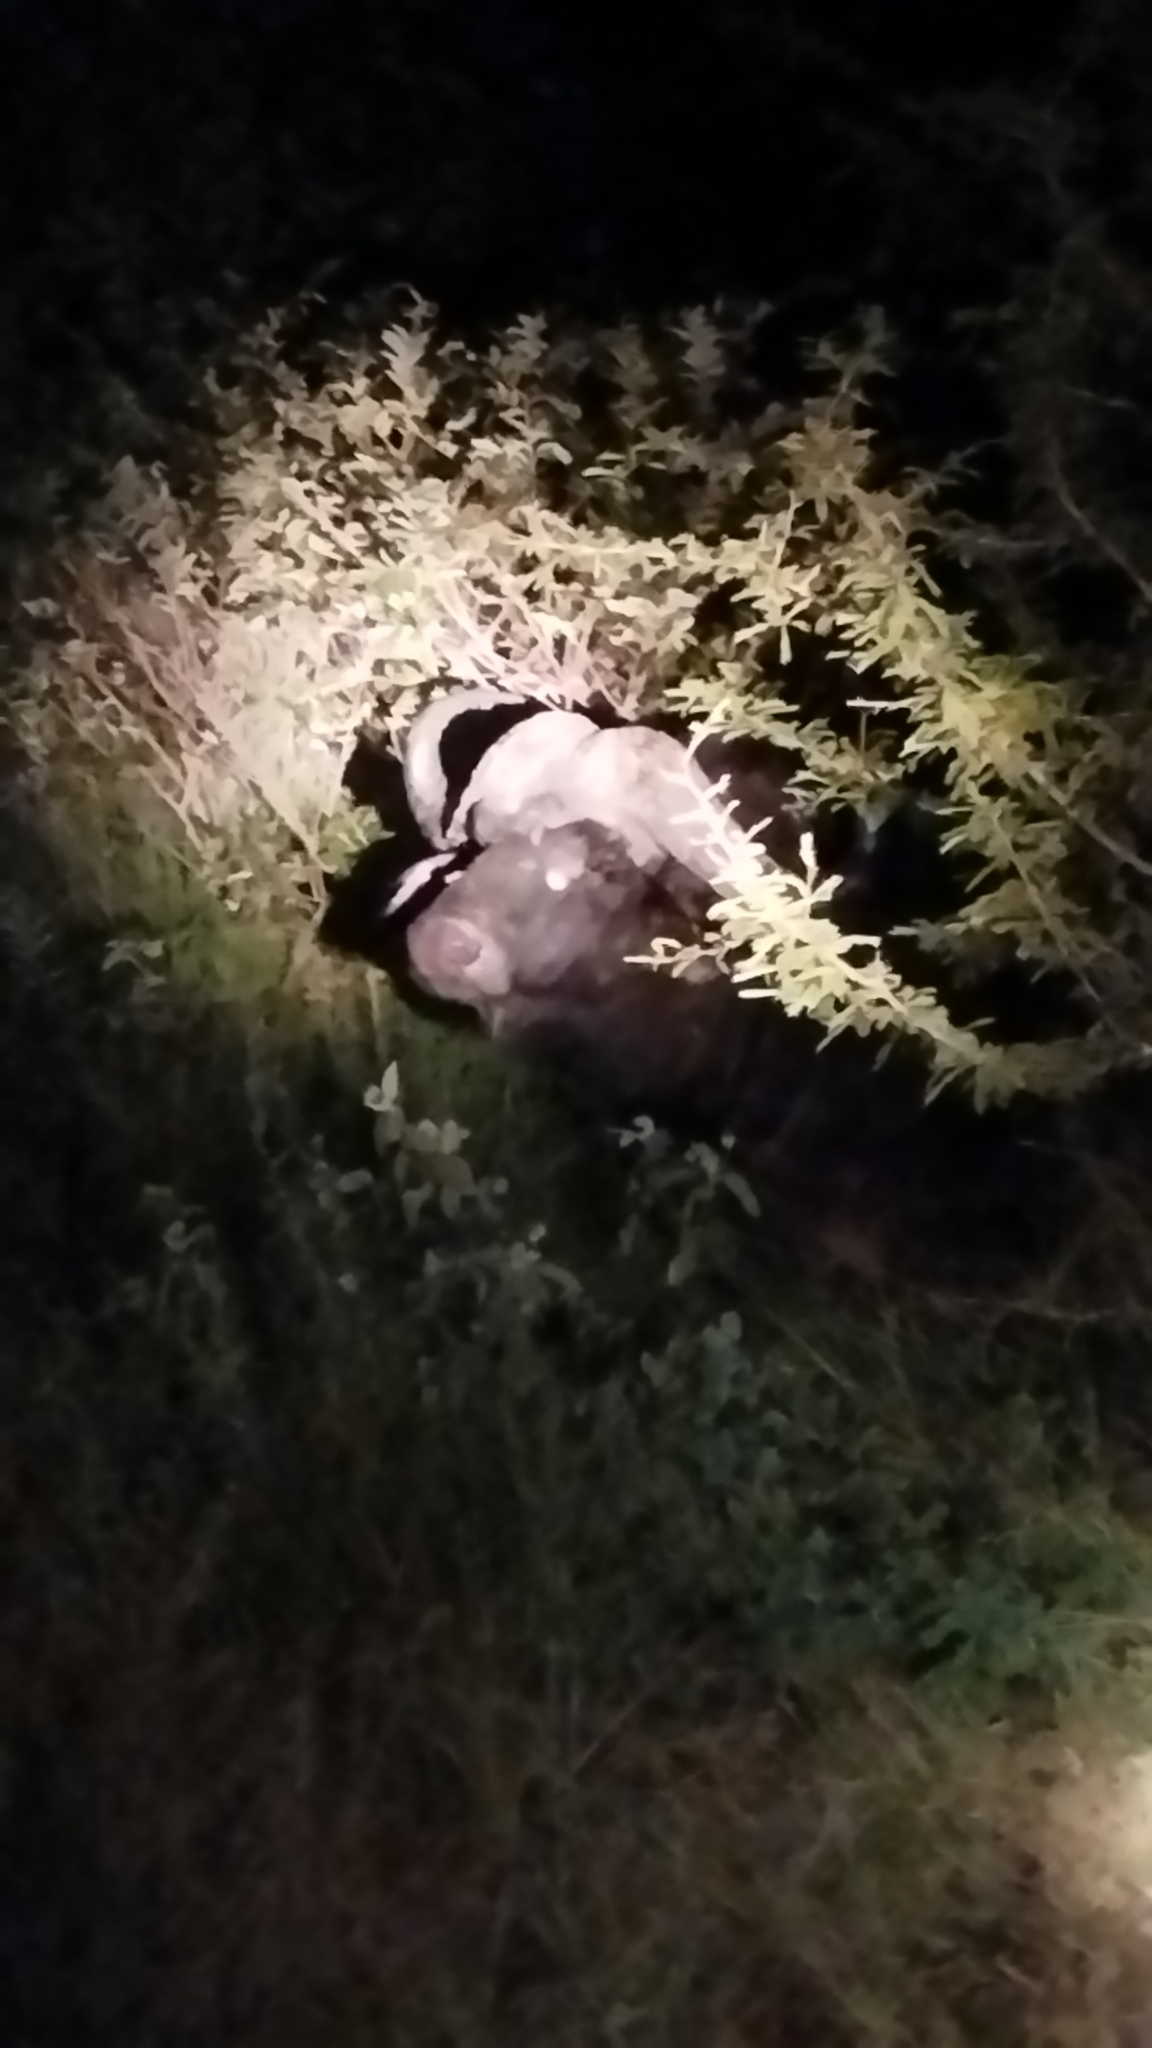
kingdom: Animalia
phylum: Chordata
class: Mammalia
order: Artiodactyla
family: Bovidae
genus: Syncerus
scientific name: Syncerus caffer
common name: African buffalo
